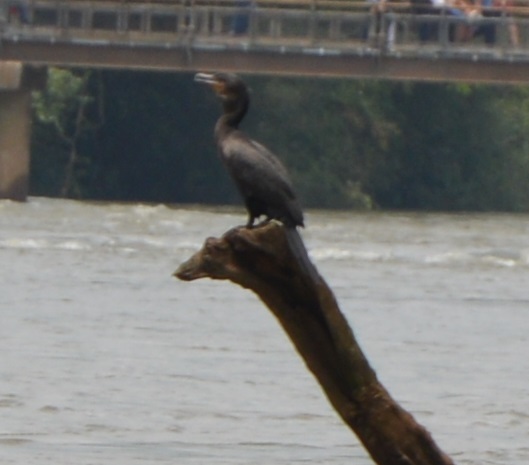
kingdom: Animalia
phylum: Chordata
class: Aves
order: Suliformes
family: Phalacrocoracidae
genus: Phalacrocorax
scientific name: Phalacrocorax brasilianus
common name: Neotropic cormorant
